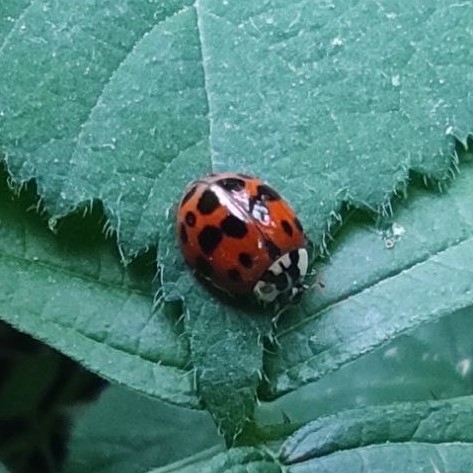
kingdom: Animalia
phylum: Arthropoda
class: Insecta
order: Coleoptera
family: Coccinellidae
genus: Harmonia
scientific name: Harmonia axyridis
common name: Harlequin ladybird
